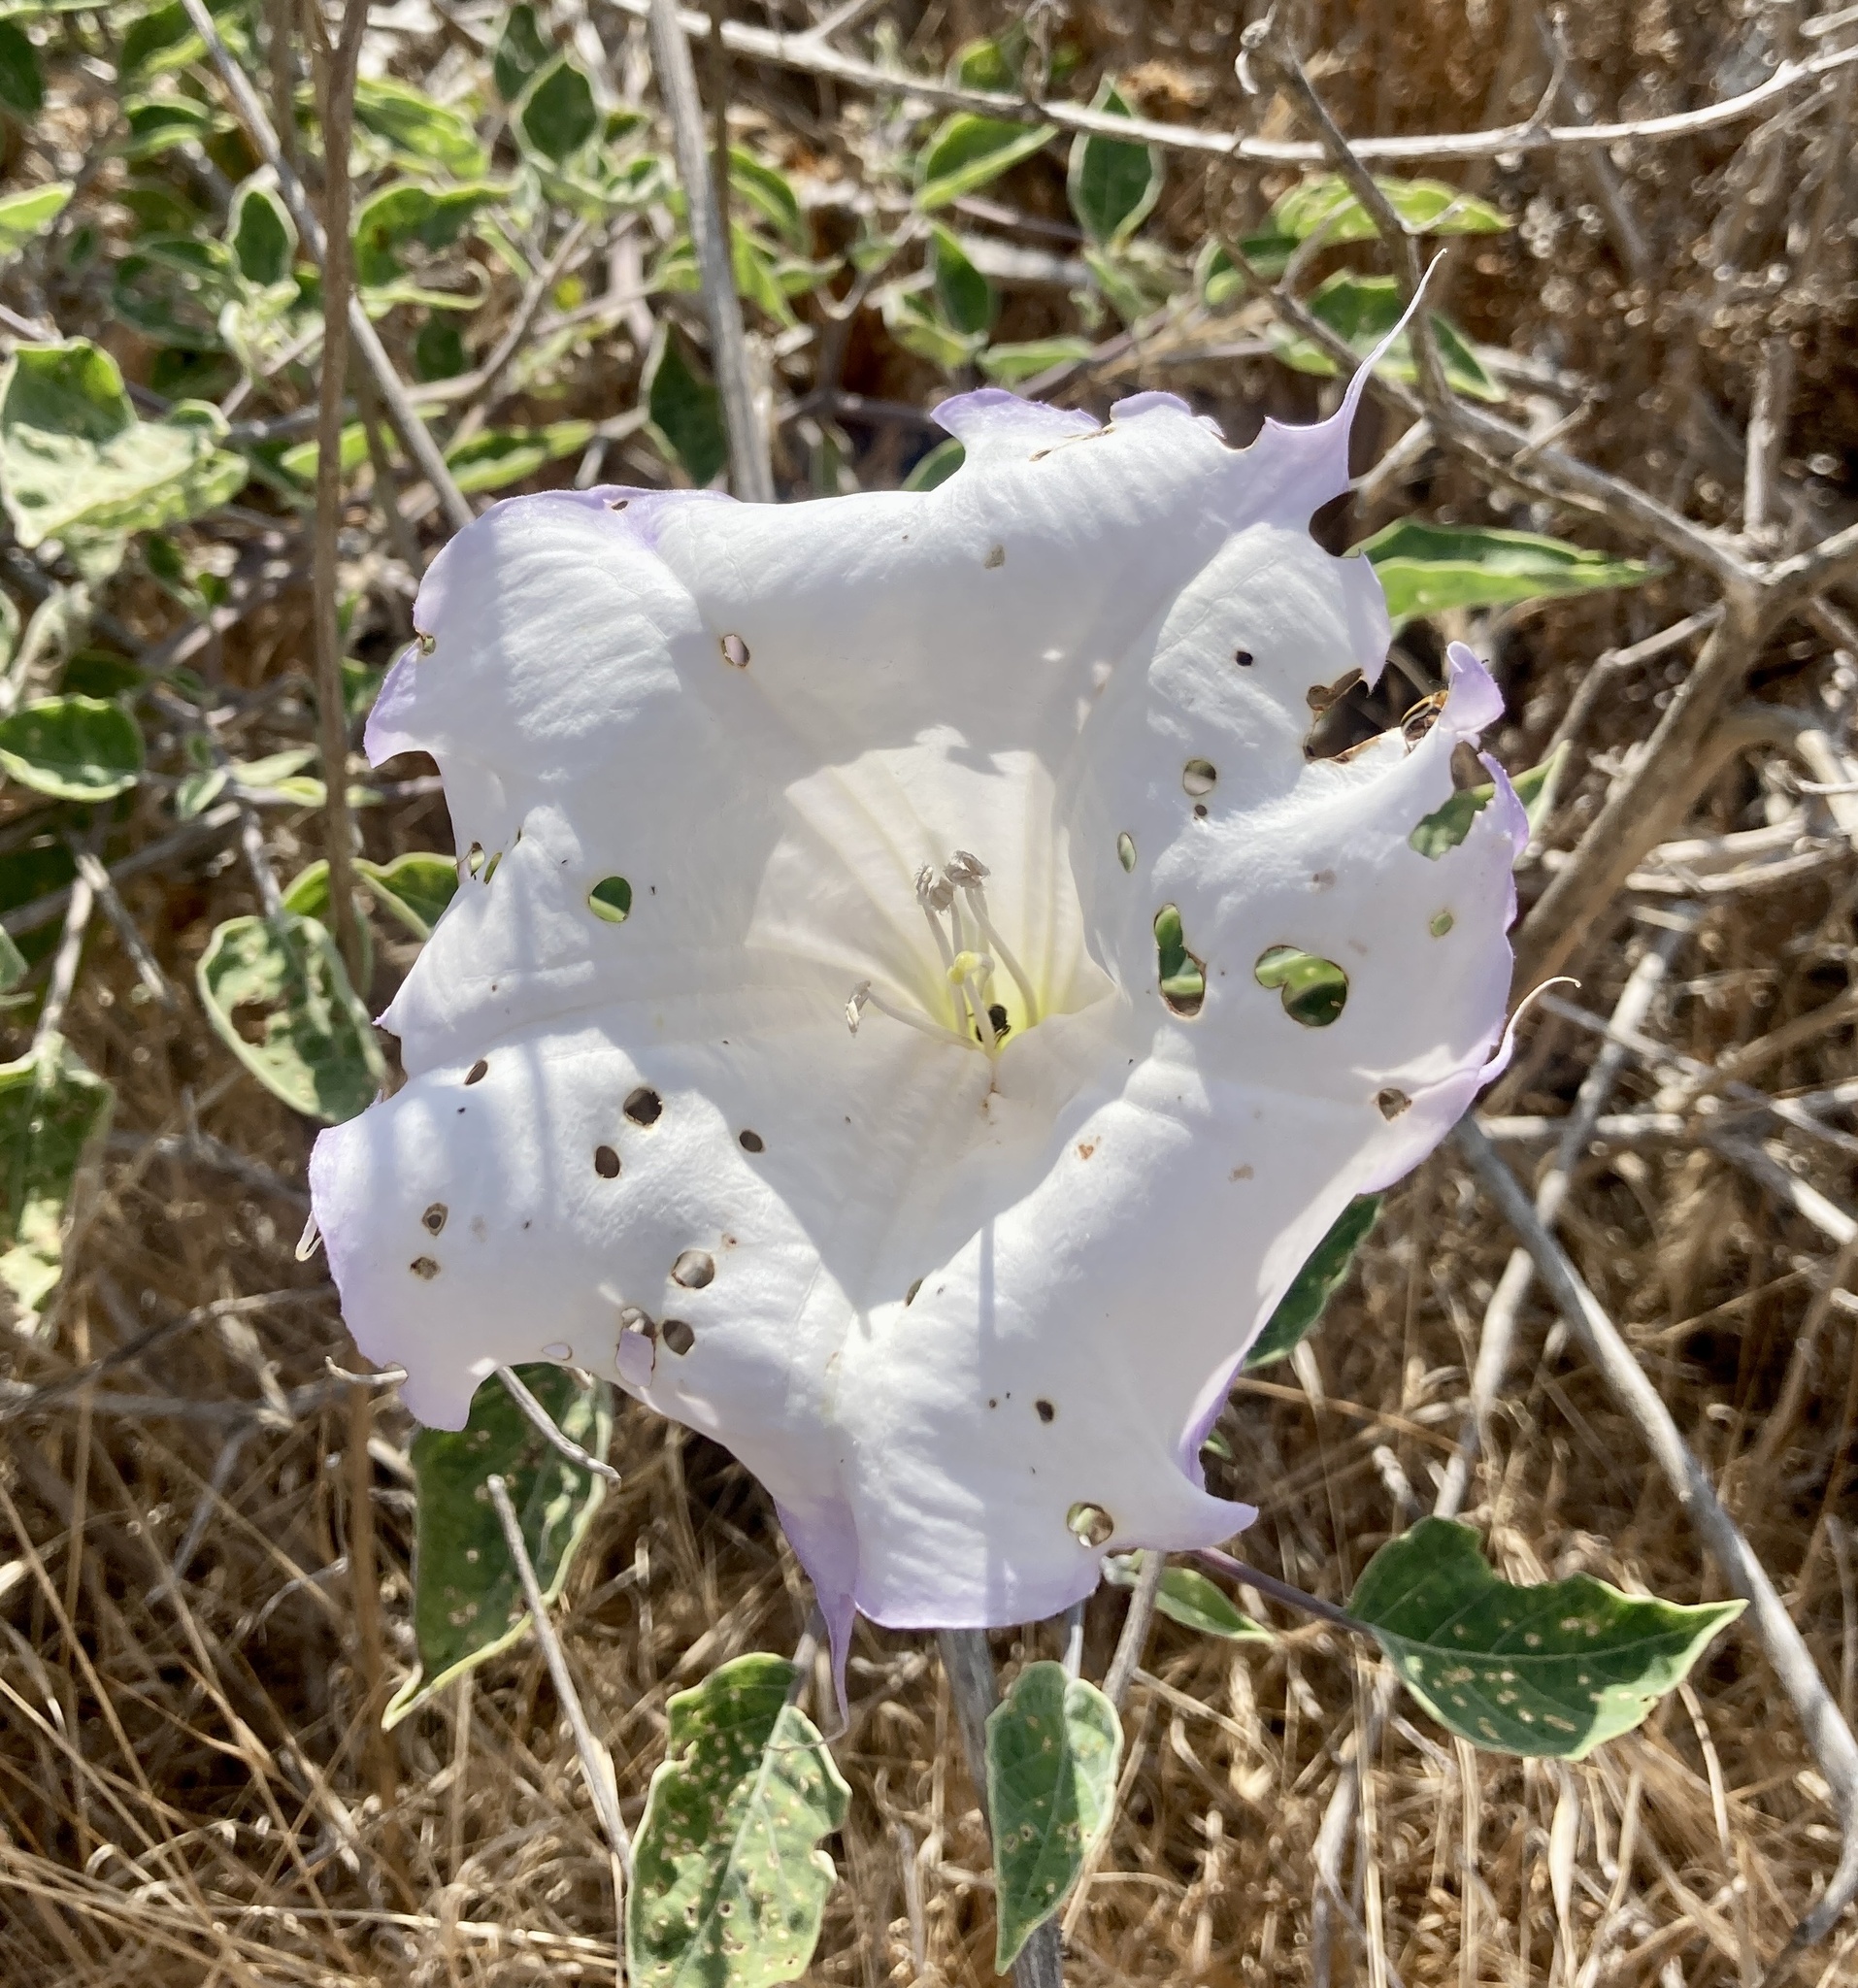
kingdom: Plantae
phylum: Tracheophyta
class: Magnoliopsida
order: Solanales
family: Solanaceae
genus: Datura
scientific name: Datura wrightii
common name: Sacred thorn-apple
